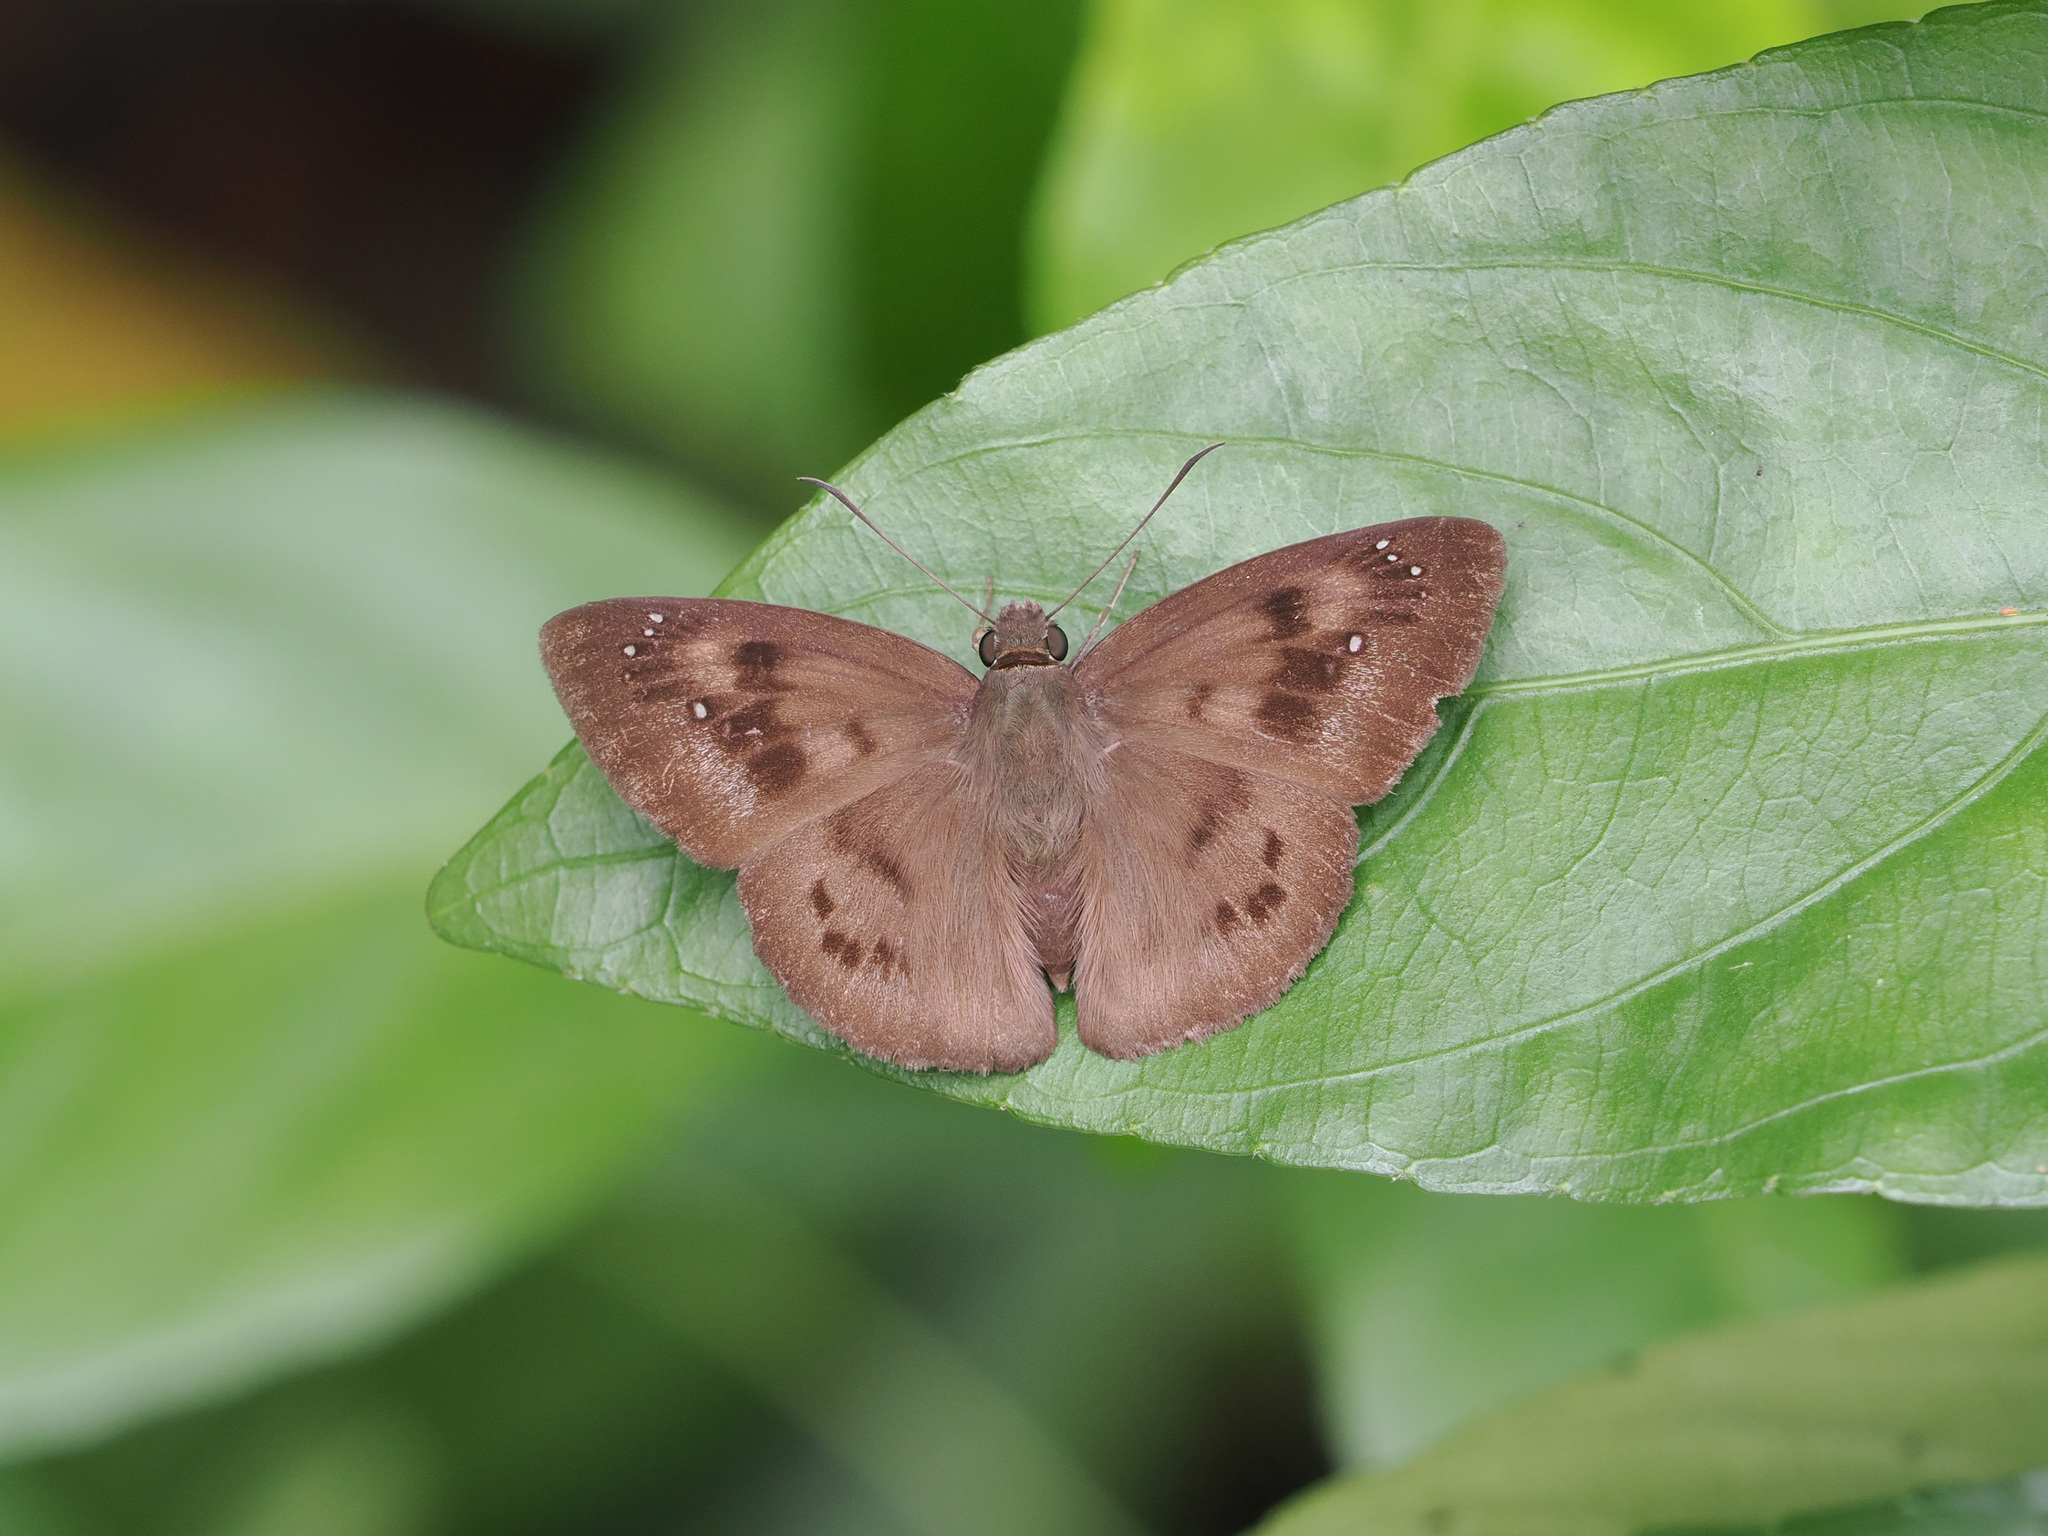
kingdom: Animalia
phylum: Arthropoda
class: Insecta
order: Lepidoptera
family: Hesperiidae
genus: Tagiades
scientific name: Tagiades japetus
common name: Pied flat
